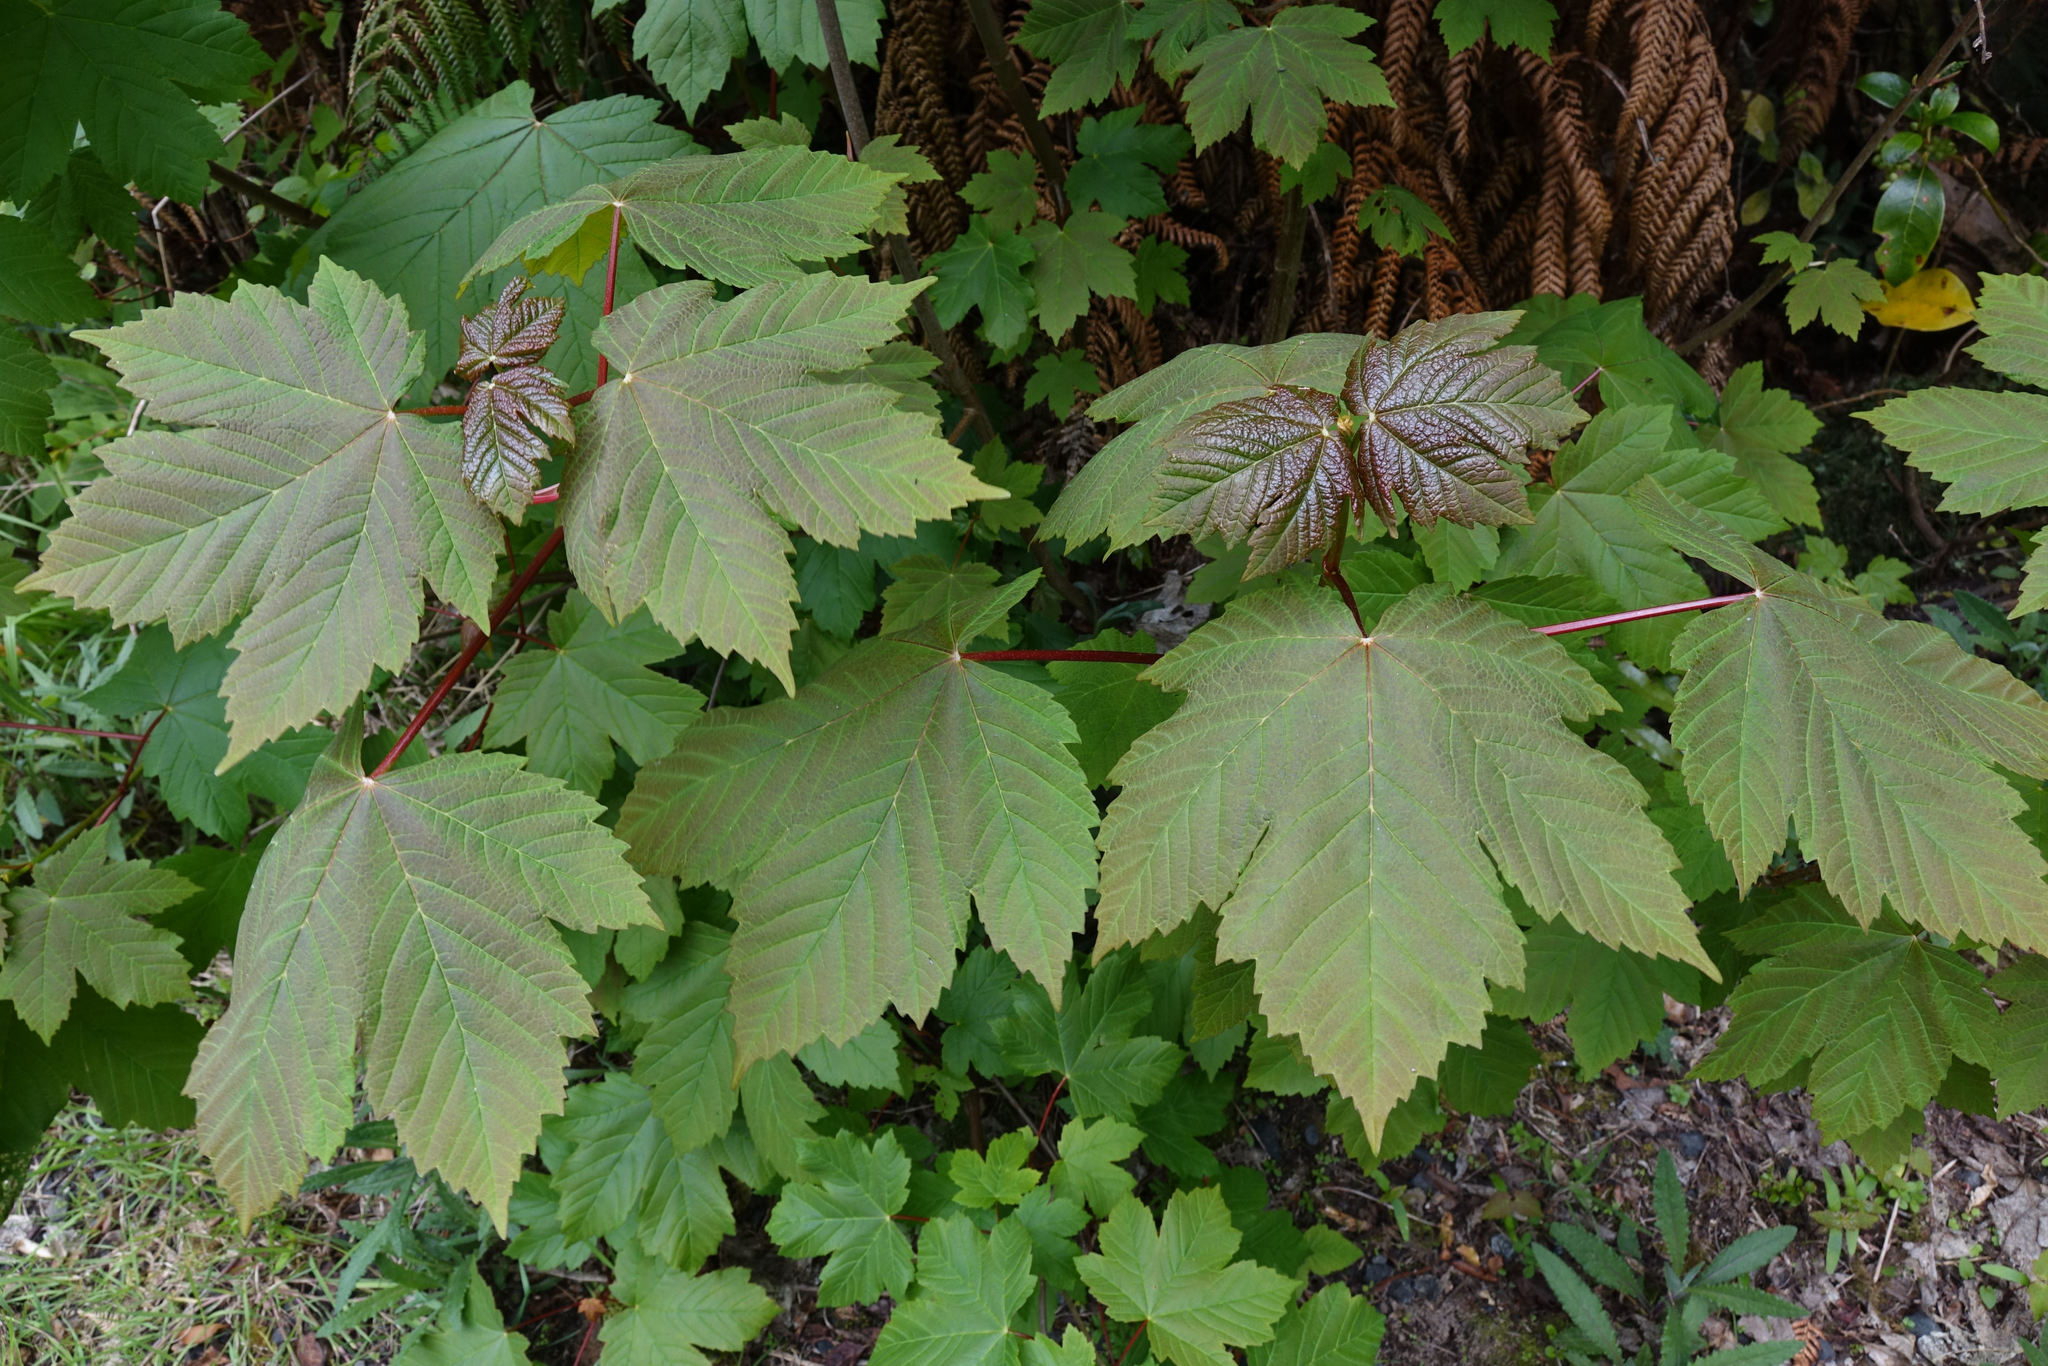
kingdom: Plantae
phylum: Tracheophyta
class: Magnoliopsida
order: Sapindales
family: Sapindaceae
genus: Acer
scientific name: Acer pseudoplatanus
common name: Sycamore
